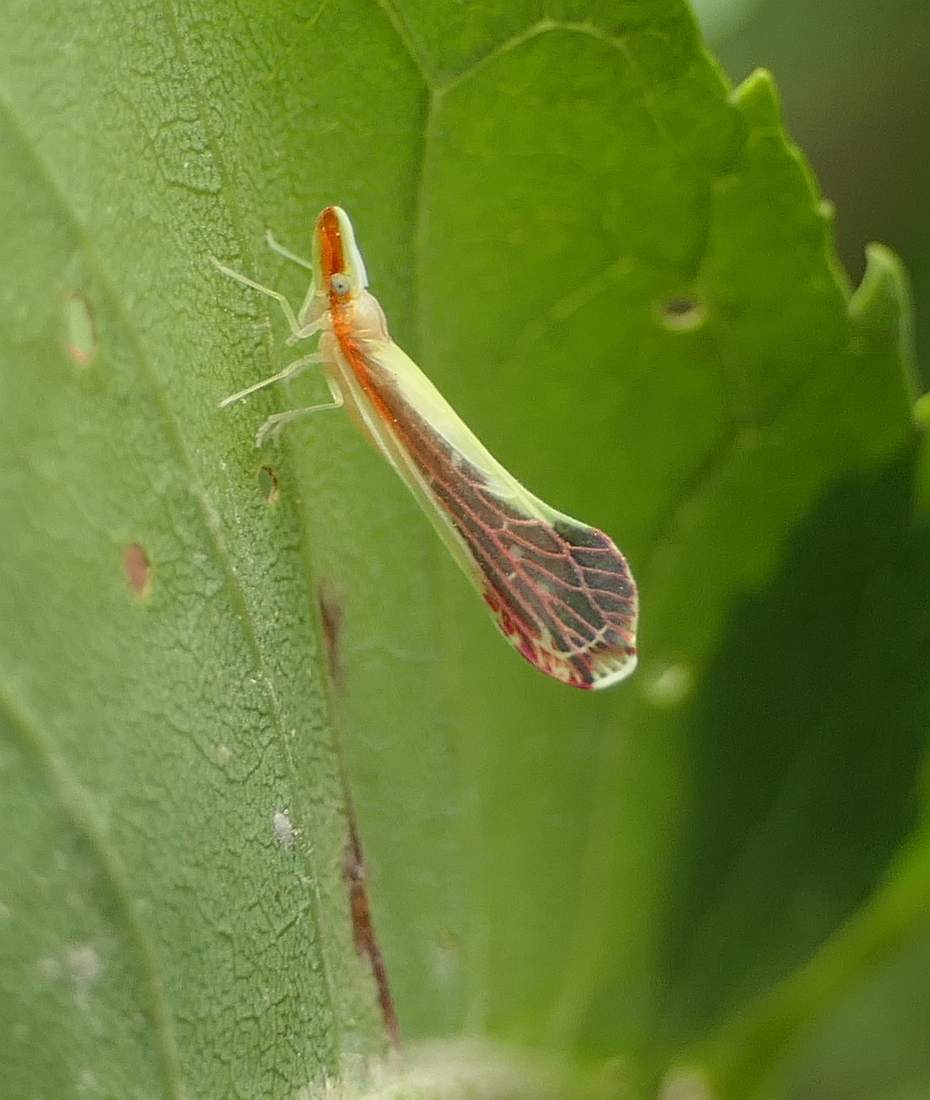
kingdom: Animalia
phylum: Arthropoda
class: Insecta
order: Hemiptera
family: Derbidae
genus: Shellenius
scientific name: Shellenius ballii
